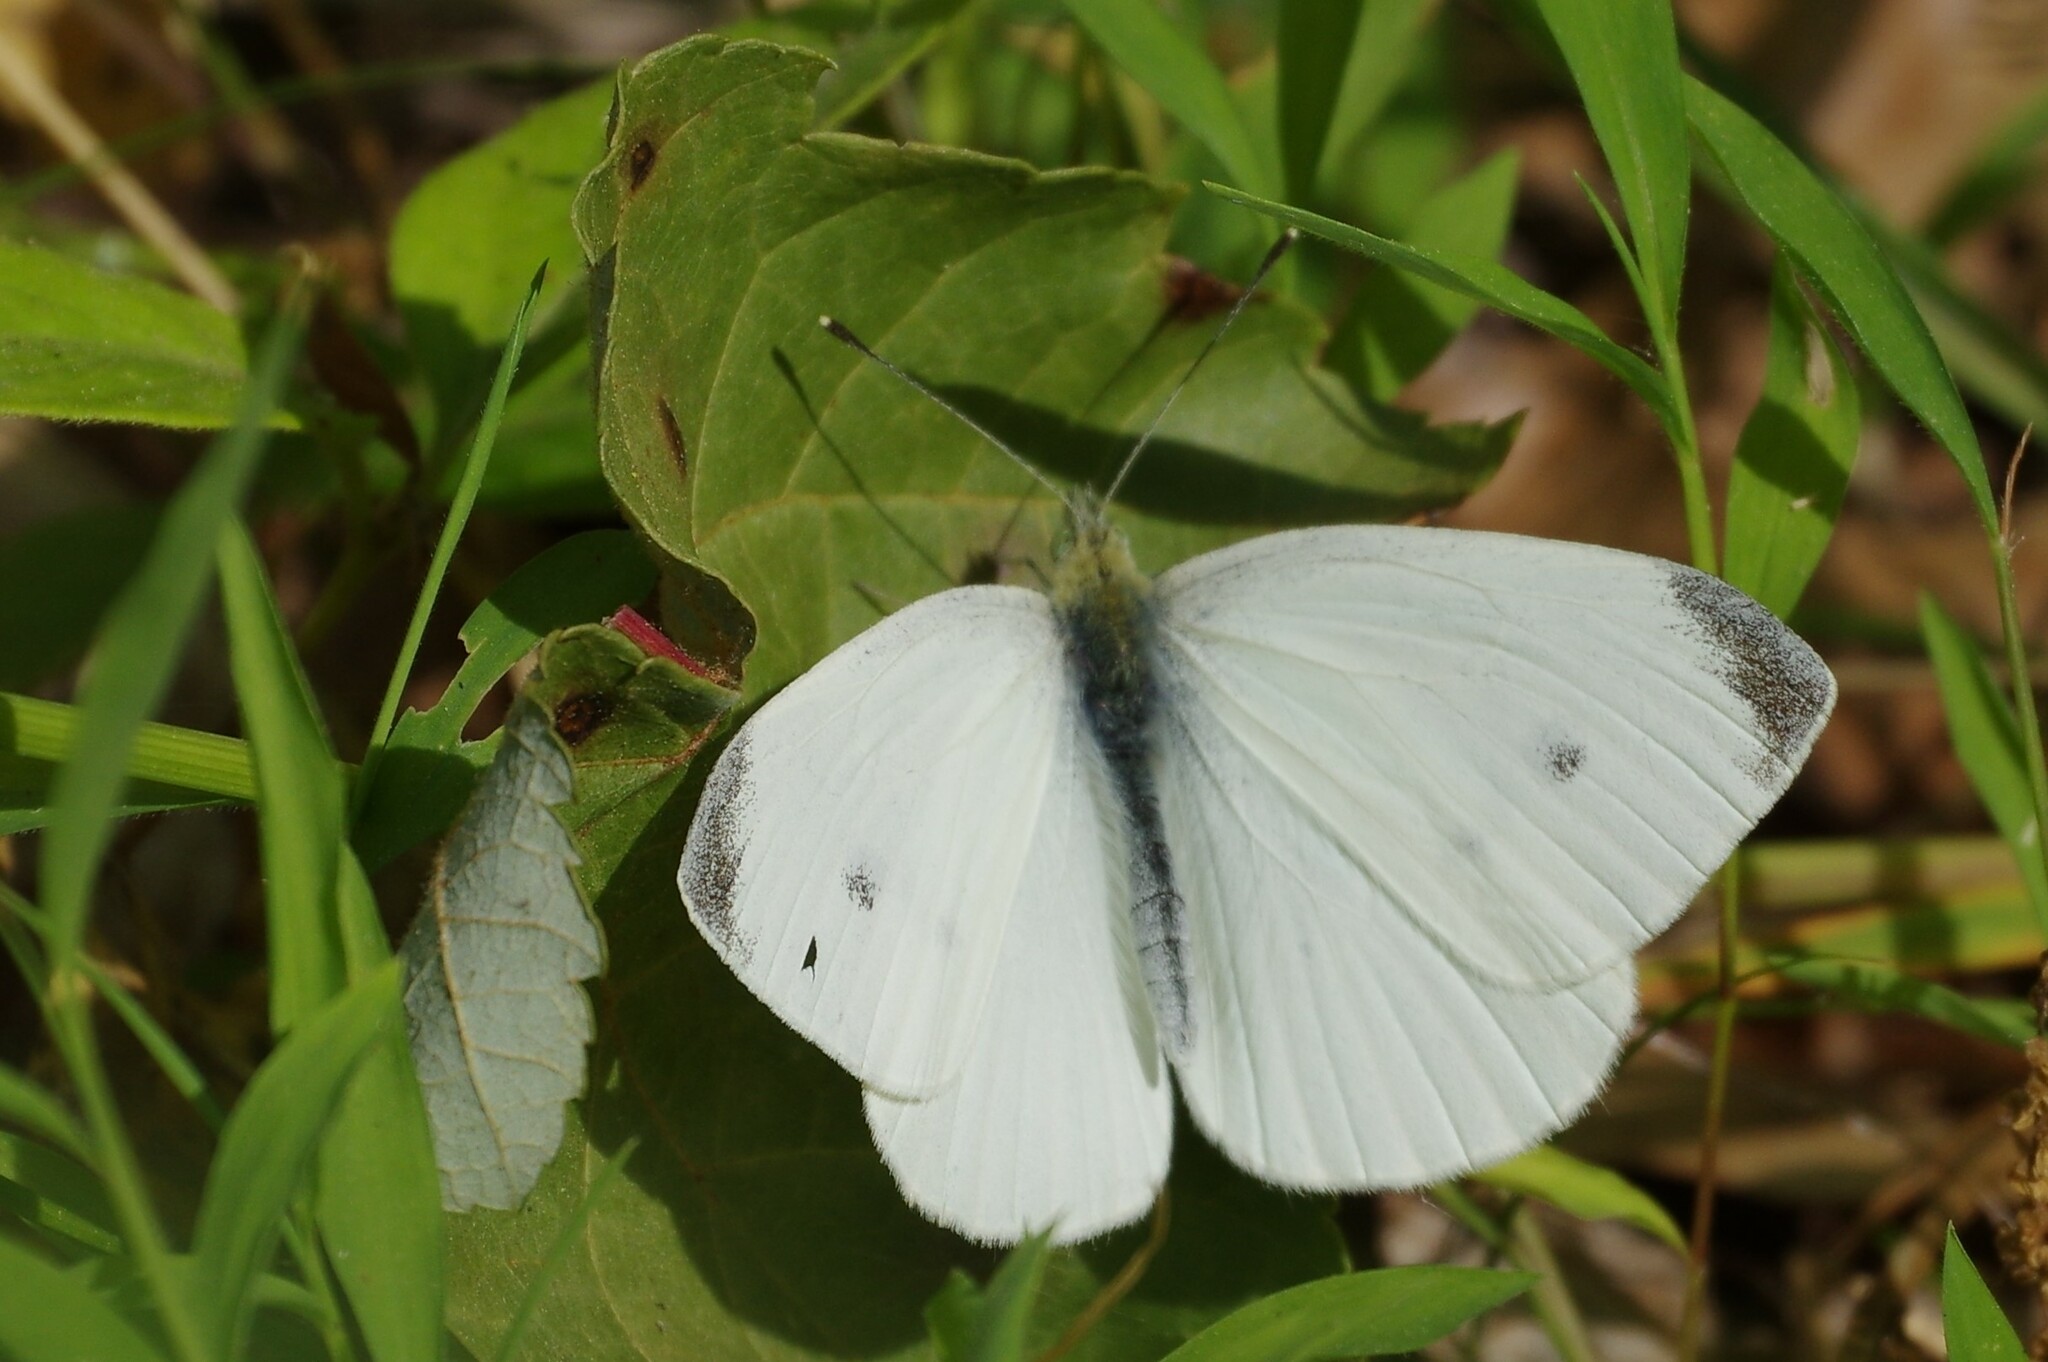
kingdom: Animalia
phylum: Arthropoda
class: Insecta
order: Lepidoptera
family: Pieridae
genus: Pieris
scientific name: Pieris rapae
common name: Small white
